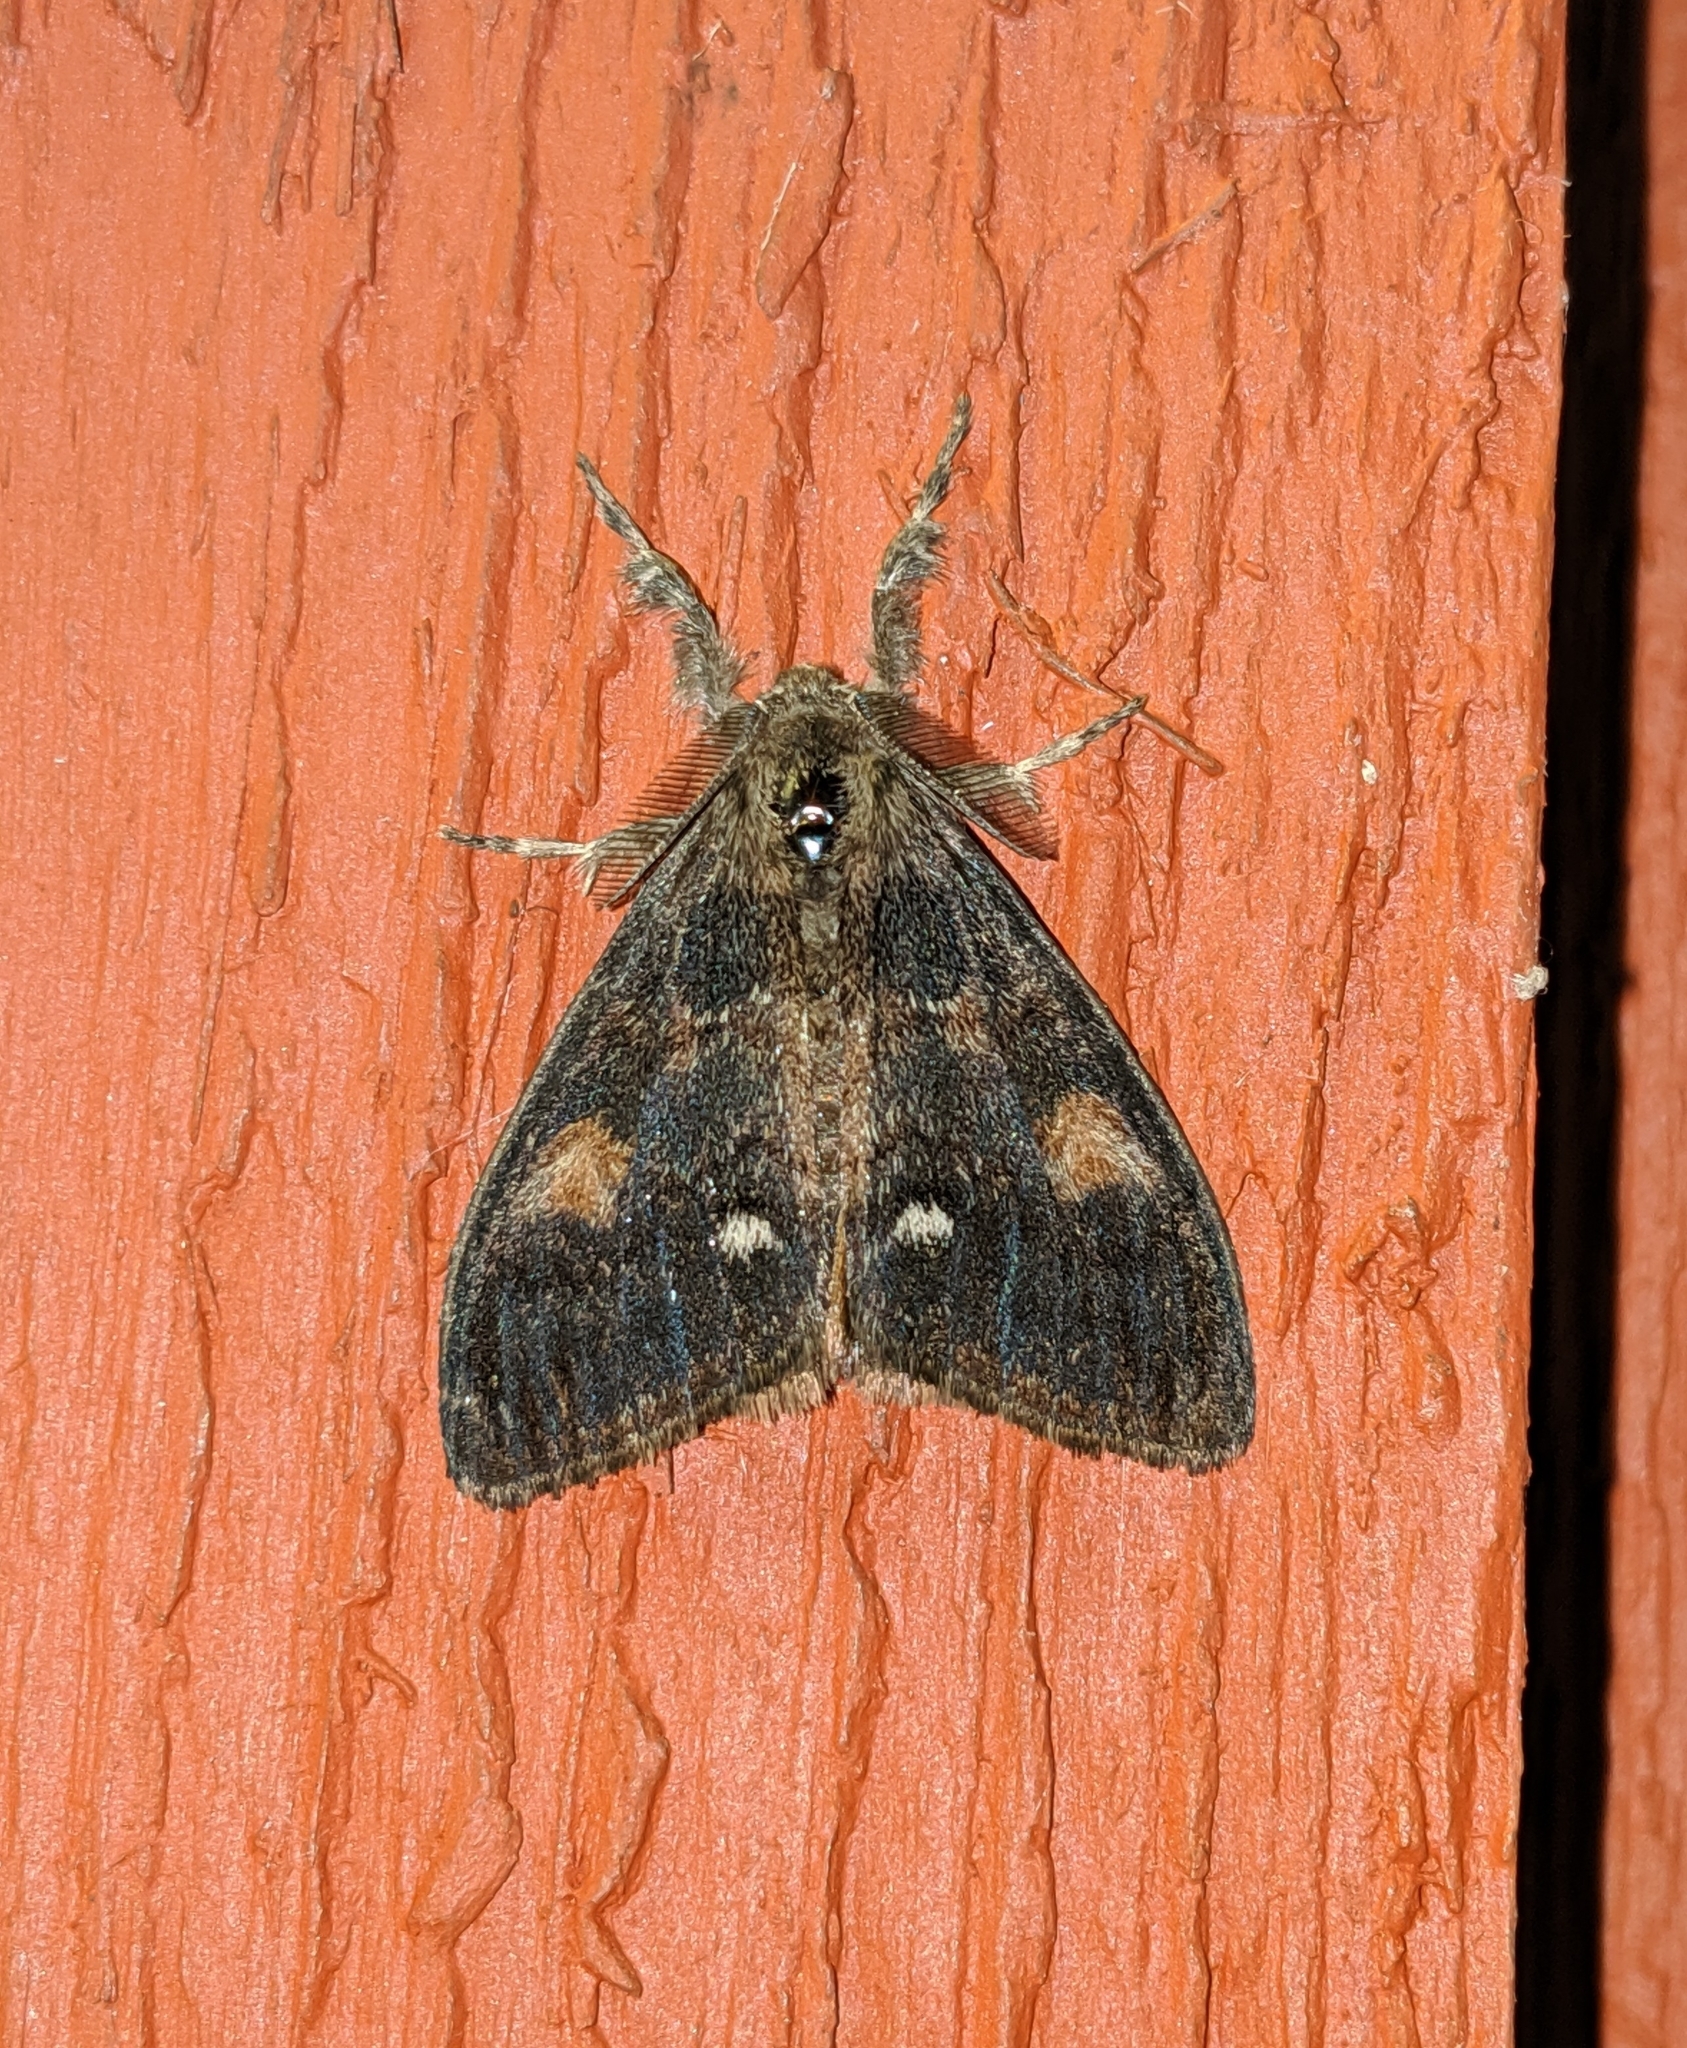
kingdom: Animalia
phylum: Arthropoda
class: Insecta
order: Lepidoptera
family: Erebidae
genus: Orgyia
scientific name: Orgyia pseudotsugata
